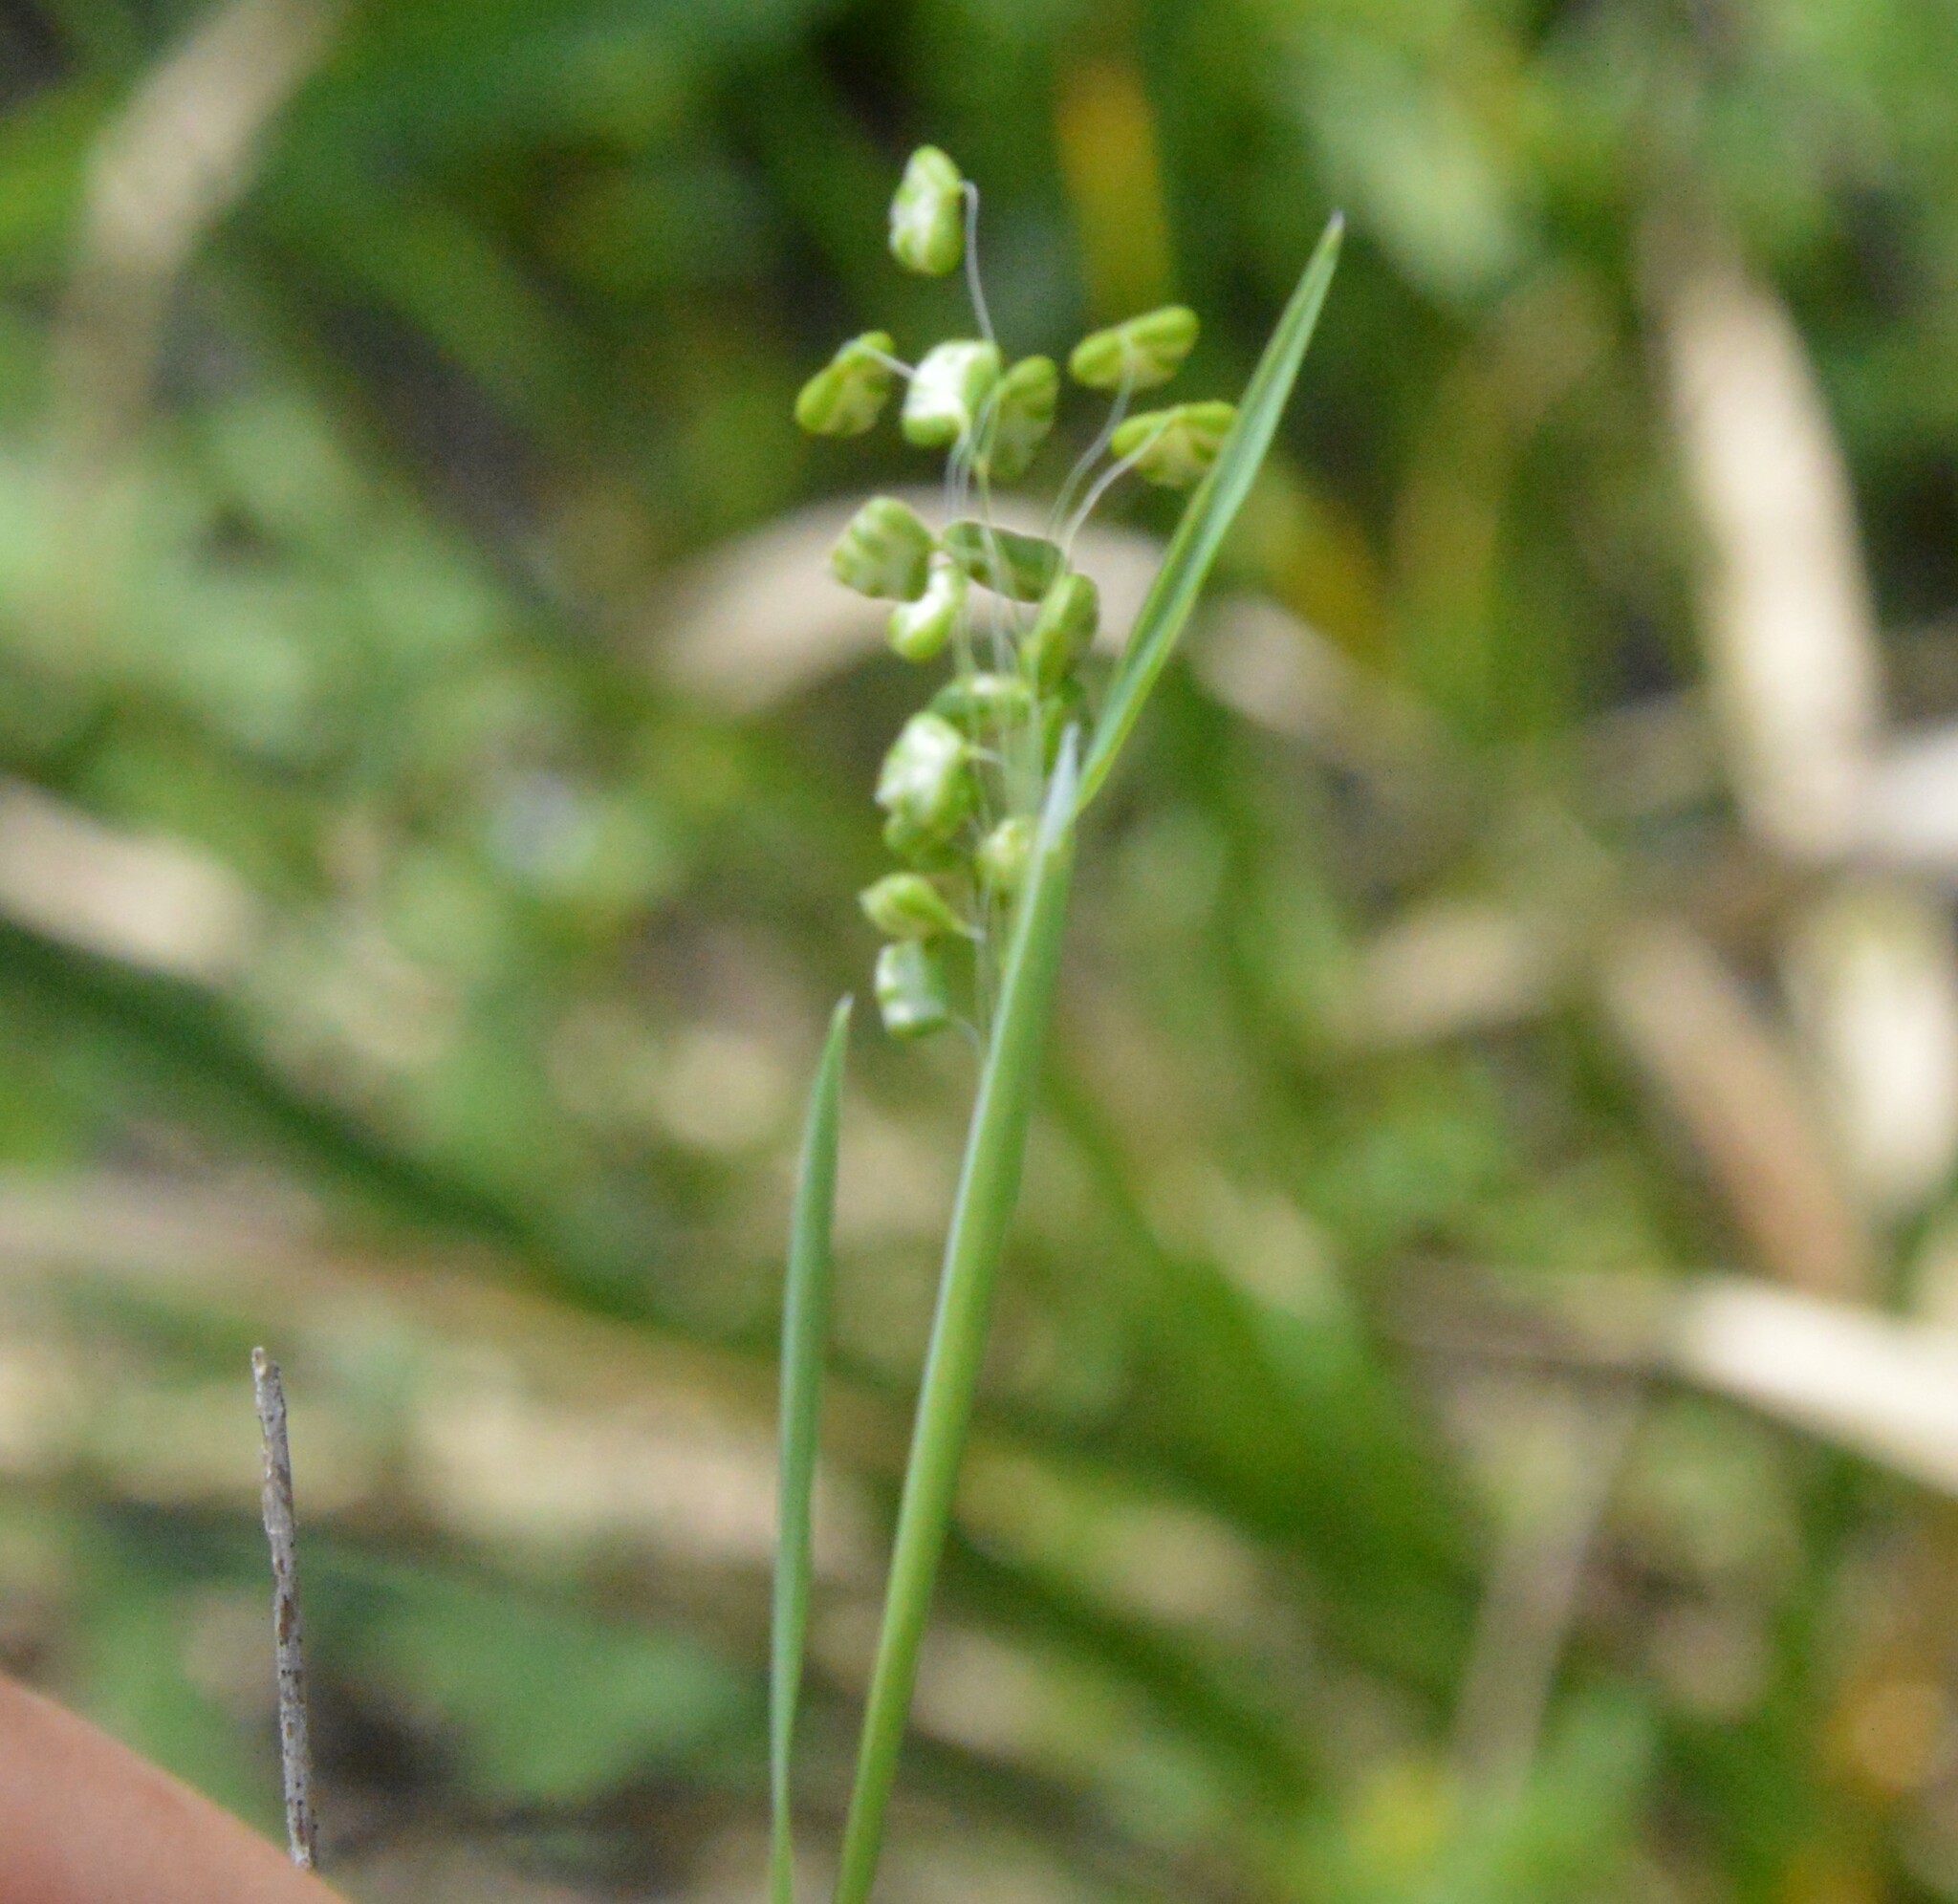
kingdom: Plantae
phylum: Tracheophyta
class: Liliopsida
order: Poales
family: Poaceae
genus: Briza
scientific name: Briza minor
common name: Lesser quaking-grass
